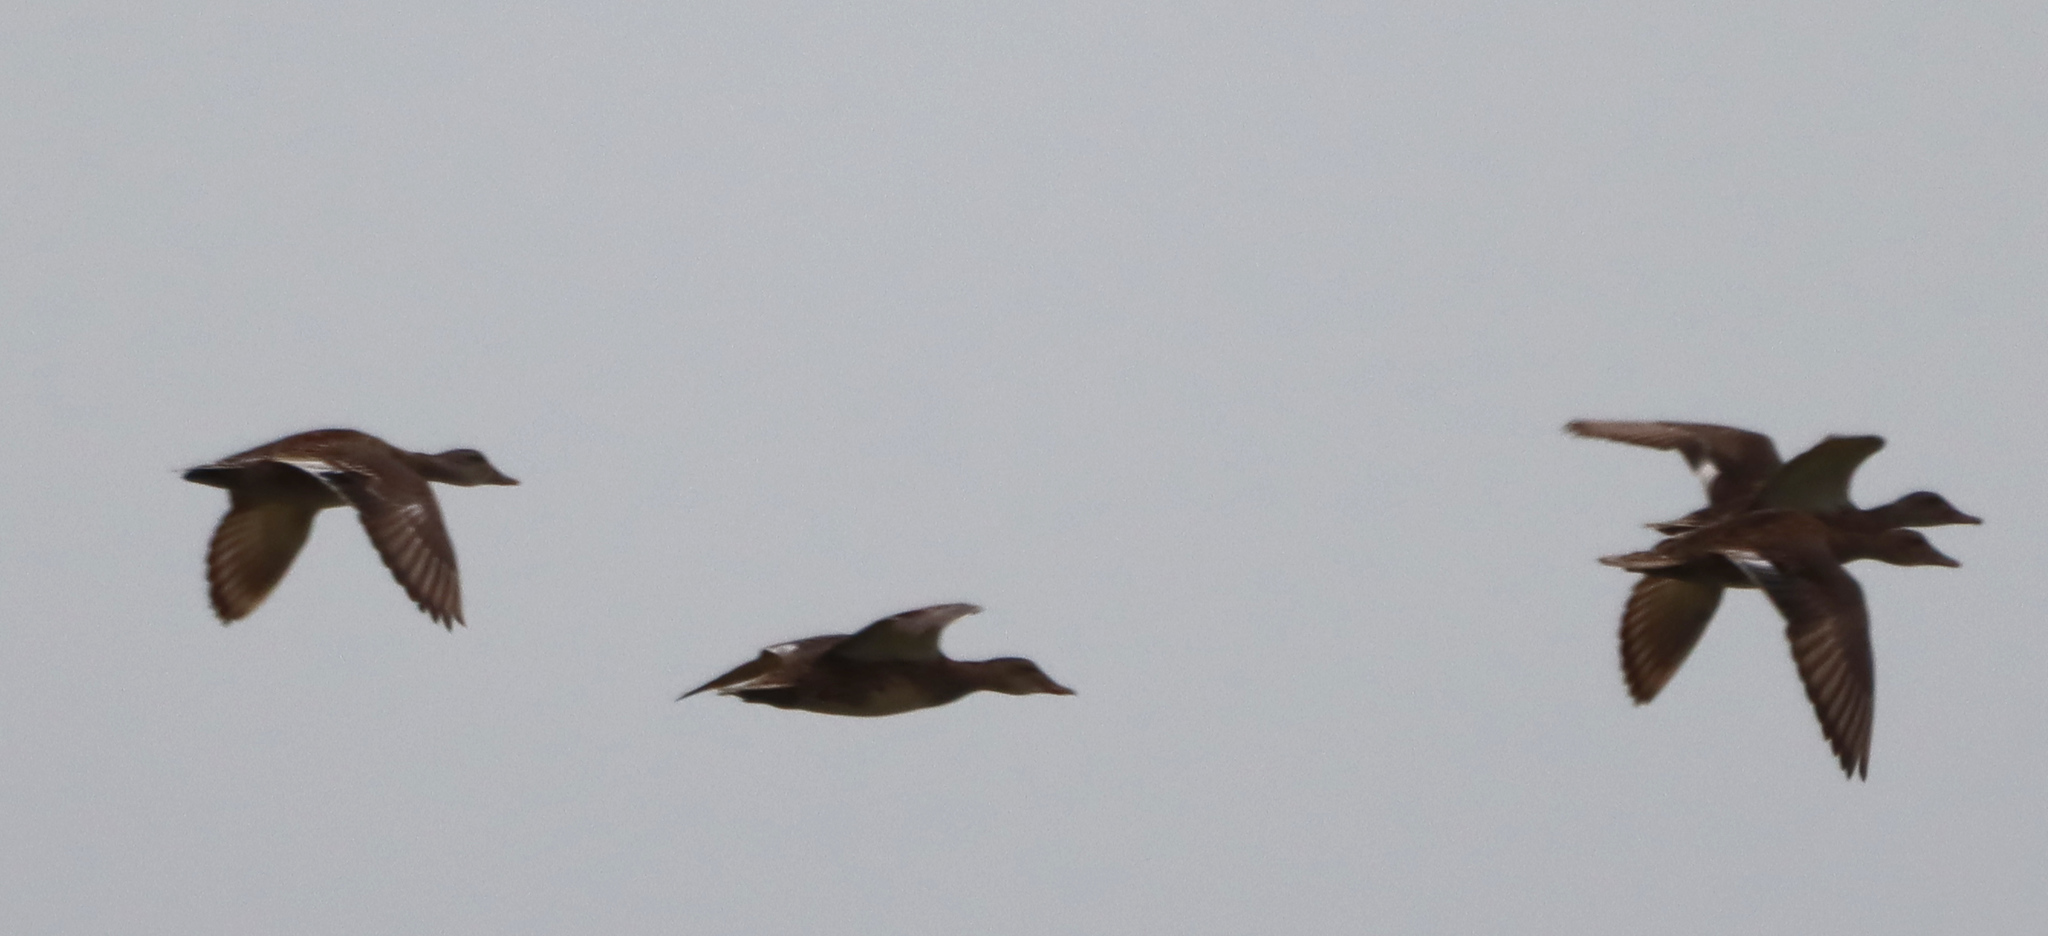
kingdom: Animalia
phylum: Chordata
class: Aves
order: Anseriformes
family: Anatidae
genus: Mareca
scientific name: Mareca strepera
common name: Gadwall
